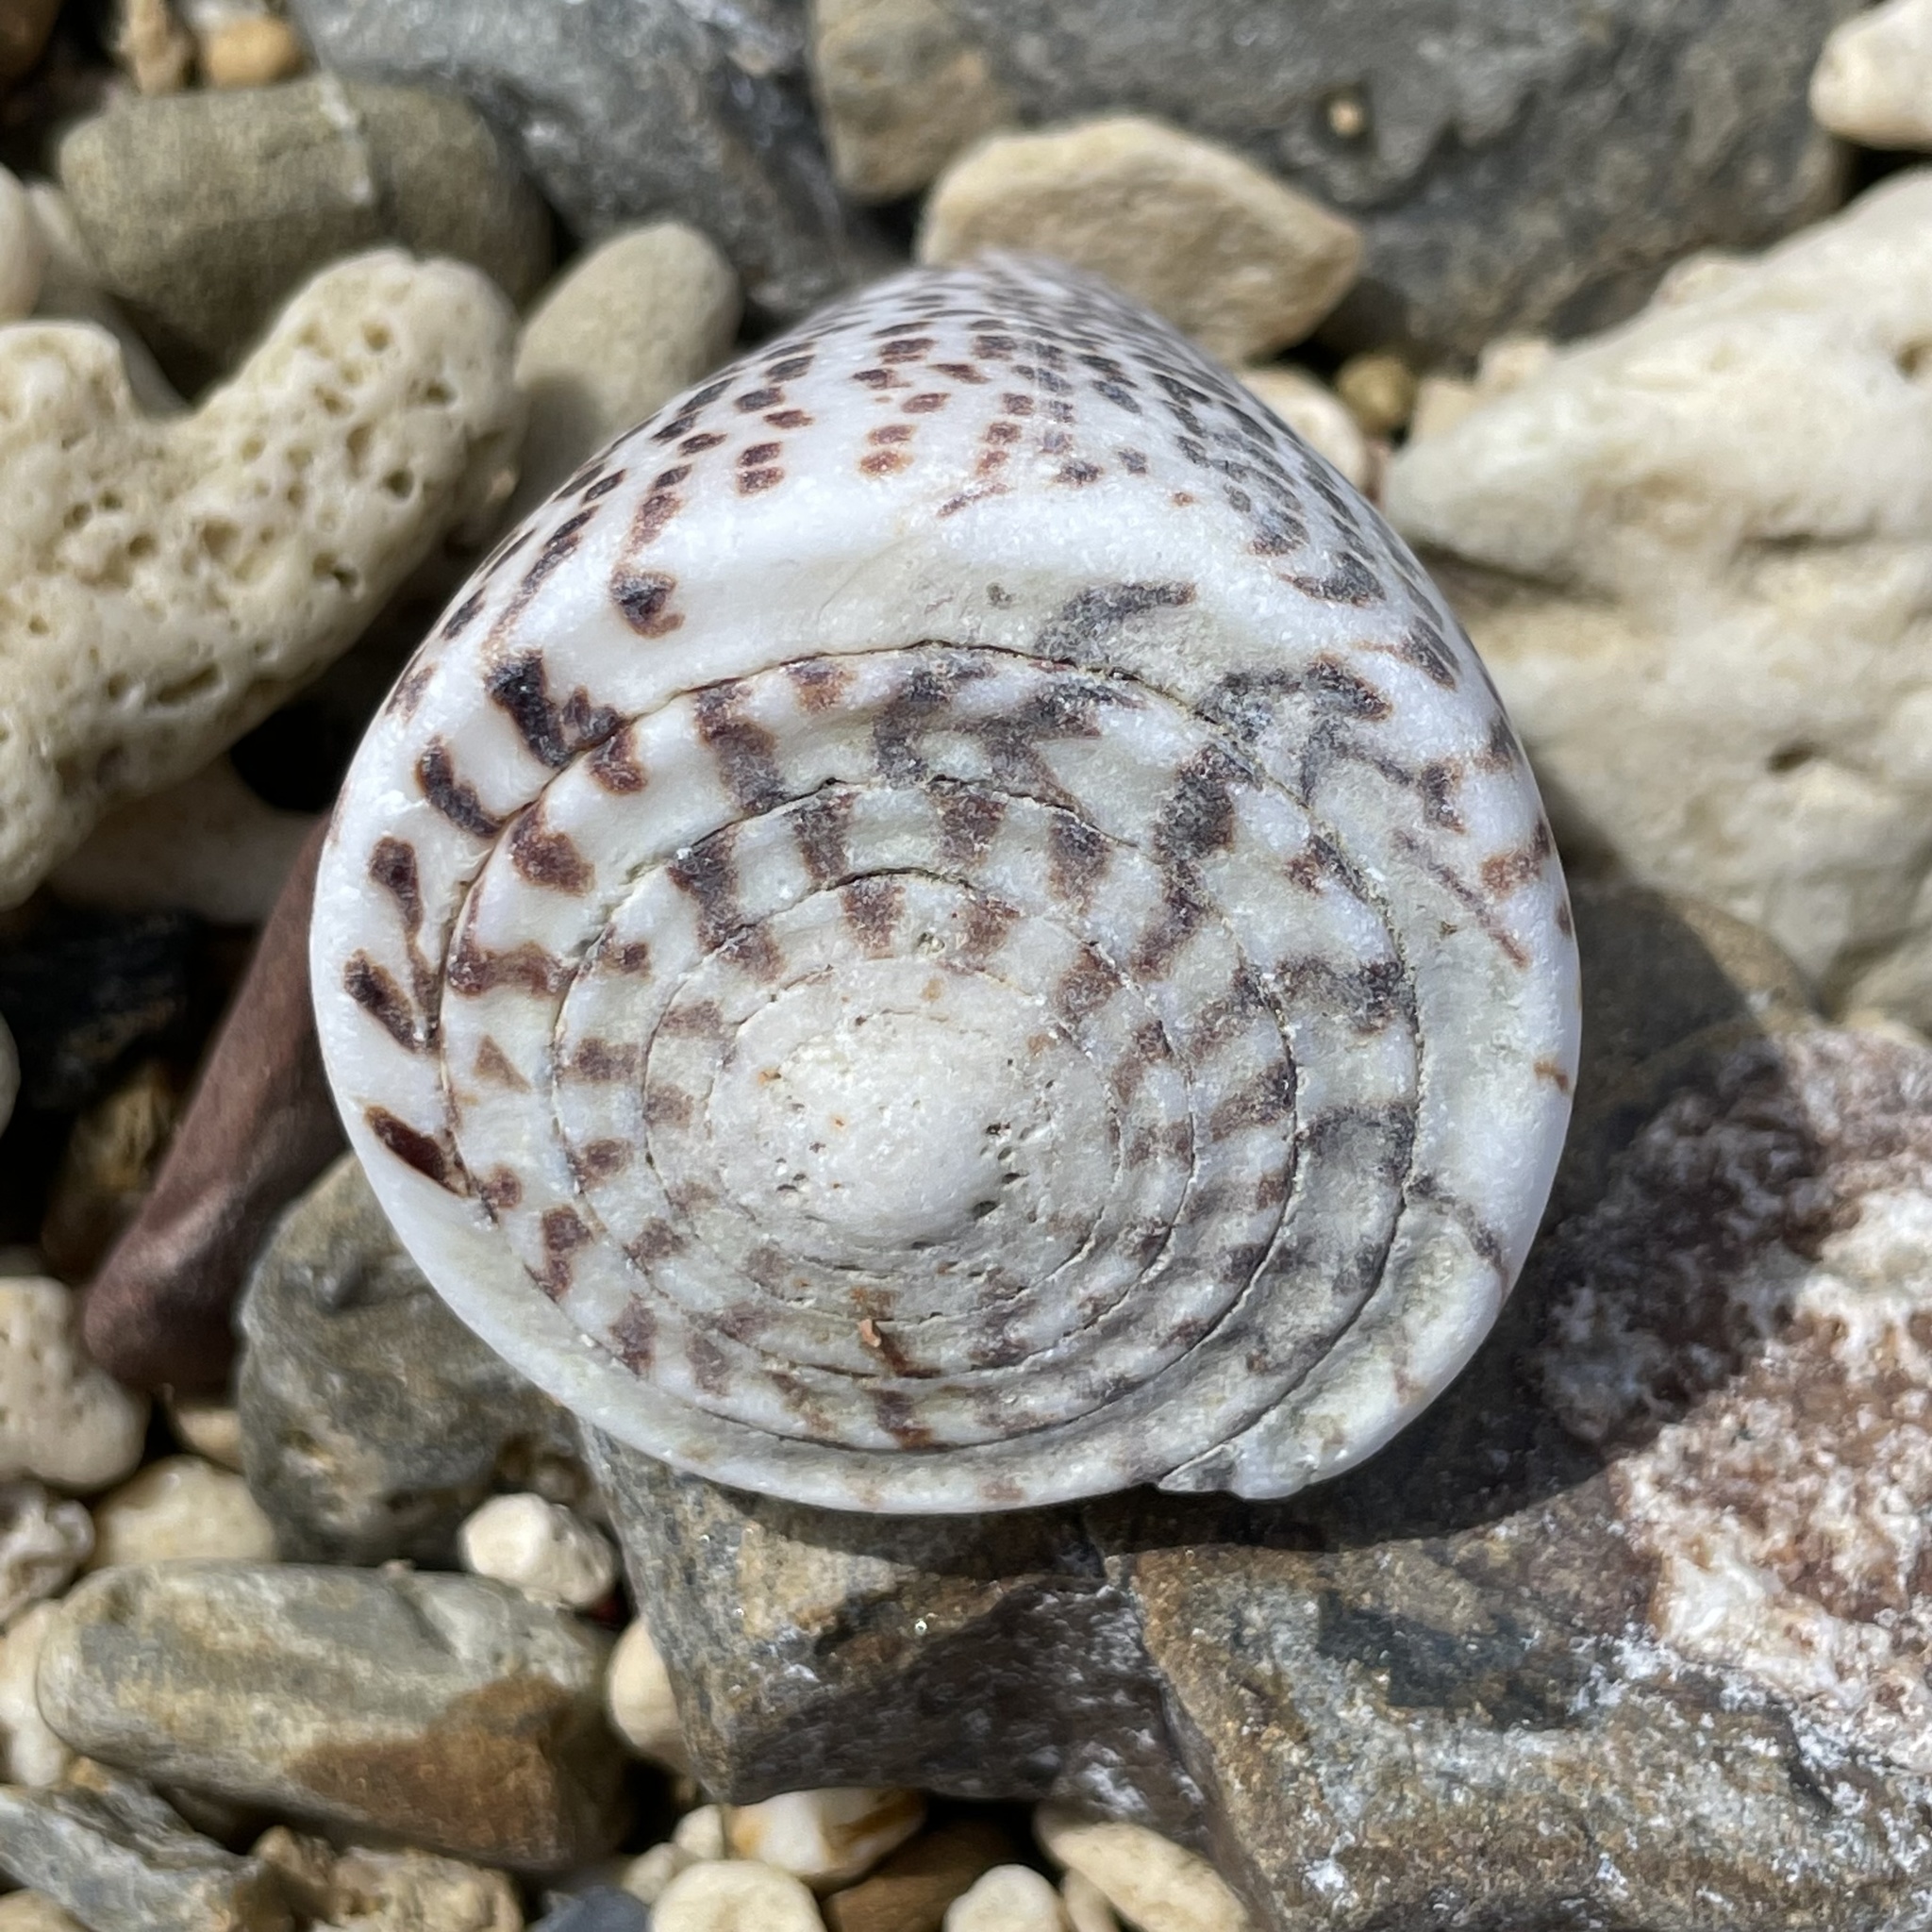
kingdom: Animalia
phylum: Mollusca
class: Gastropoda
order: Neogastropoda
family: Conidae
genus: Conus
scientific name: Conus litteratus
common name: Lettered cone
